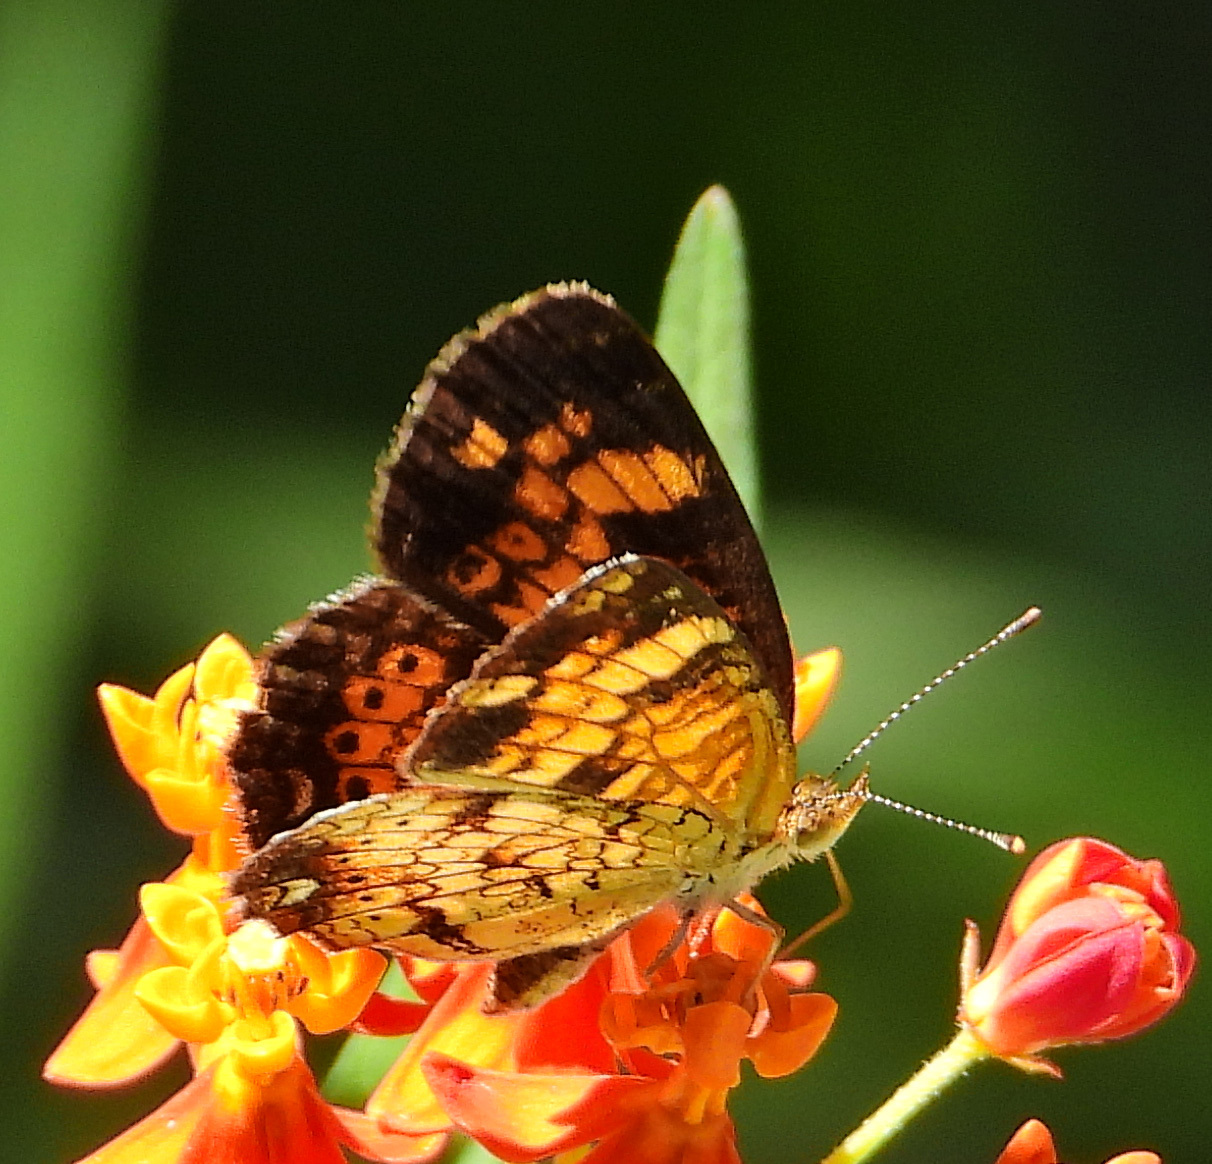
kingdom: Animalia
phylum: Arthropoda
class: Insecta
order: Lepidoptera
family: Nymphalidae
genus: Phyciodes
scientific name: Phyciodes tharos
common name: Pearl crescent
